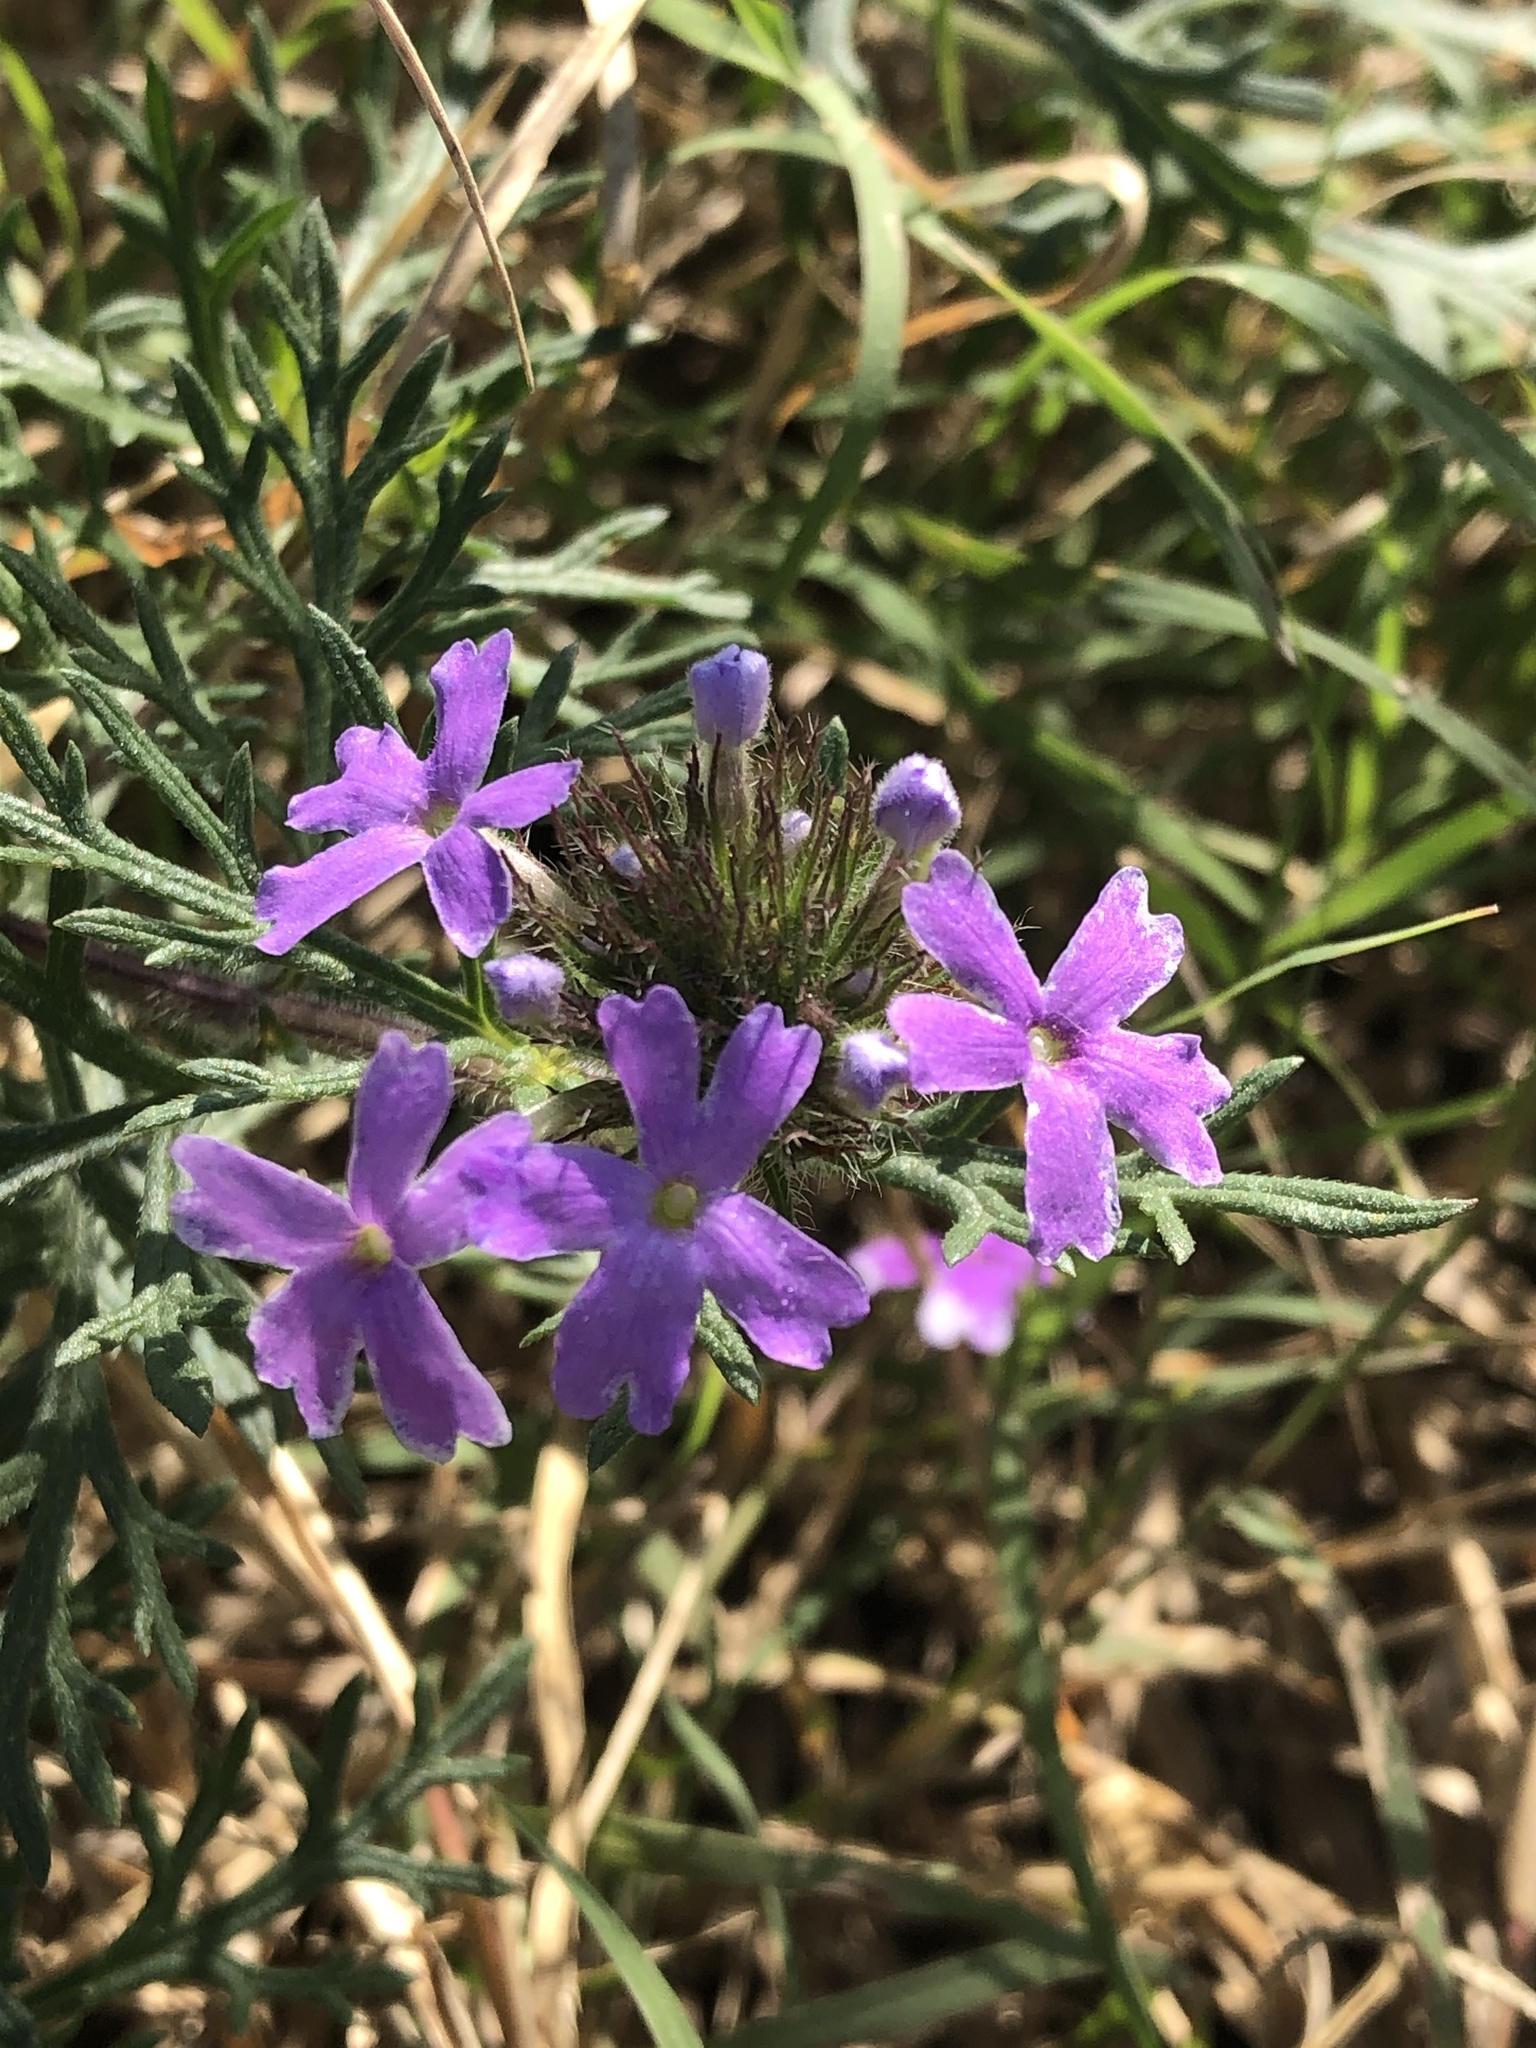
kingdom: Plantae
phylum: Tracheophyta
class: Magnoliopsida
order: Lamiales
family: Verbenaceae
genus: Verbena
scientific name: Verbena bipinnatifida
